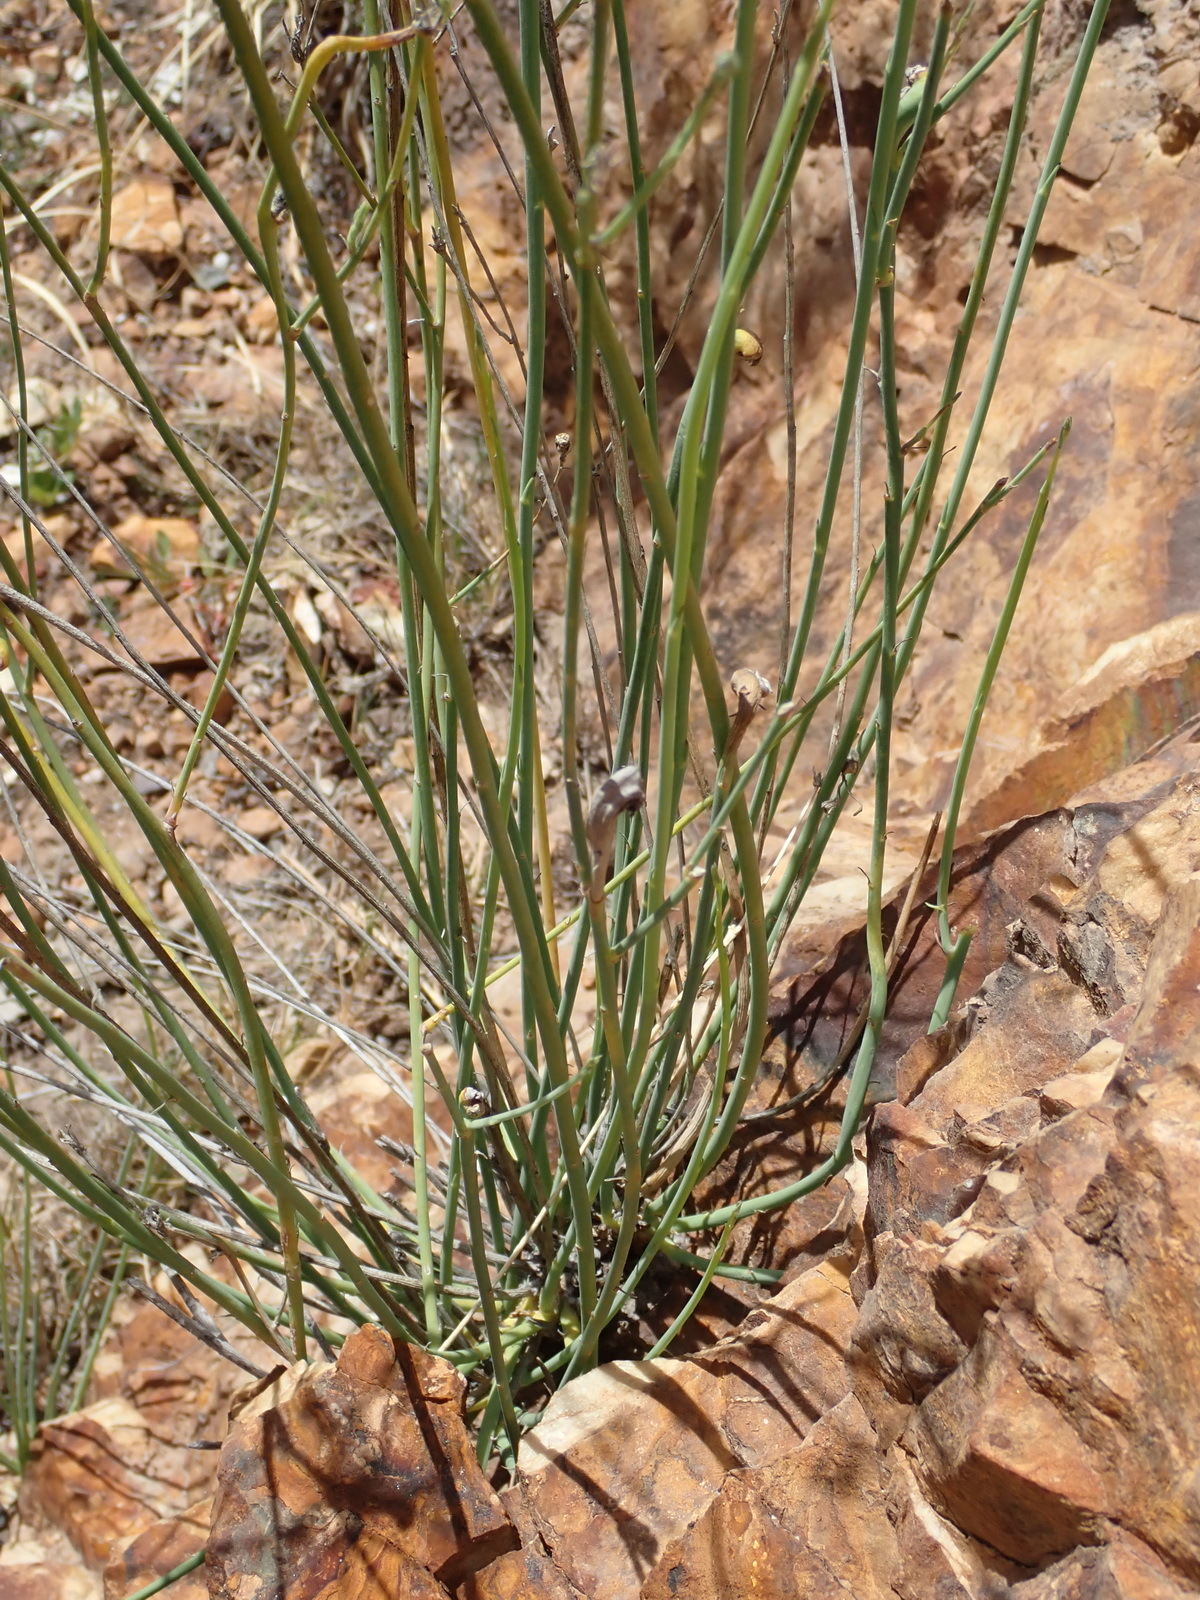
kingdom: Plantae
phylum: Tracheophyta
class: Magnoliopsida
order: Asterales
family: Campanulaceae
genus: Lobelia
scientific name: Lobelia linearis
